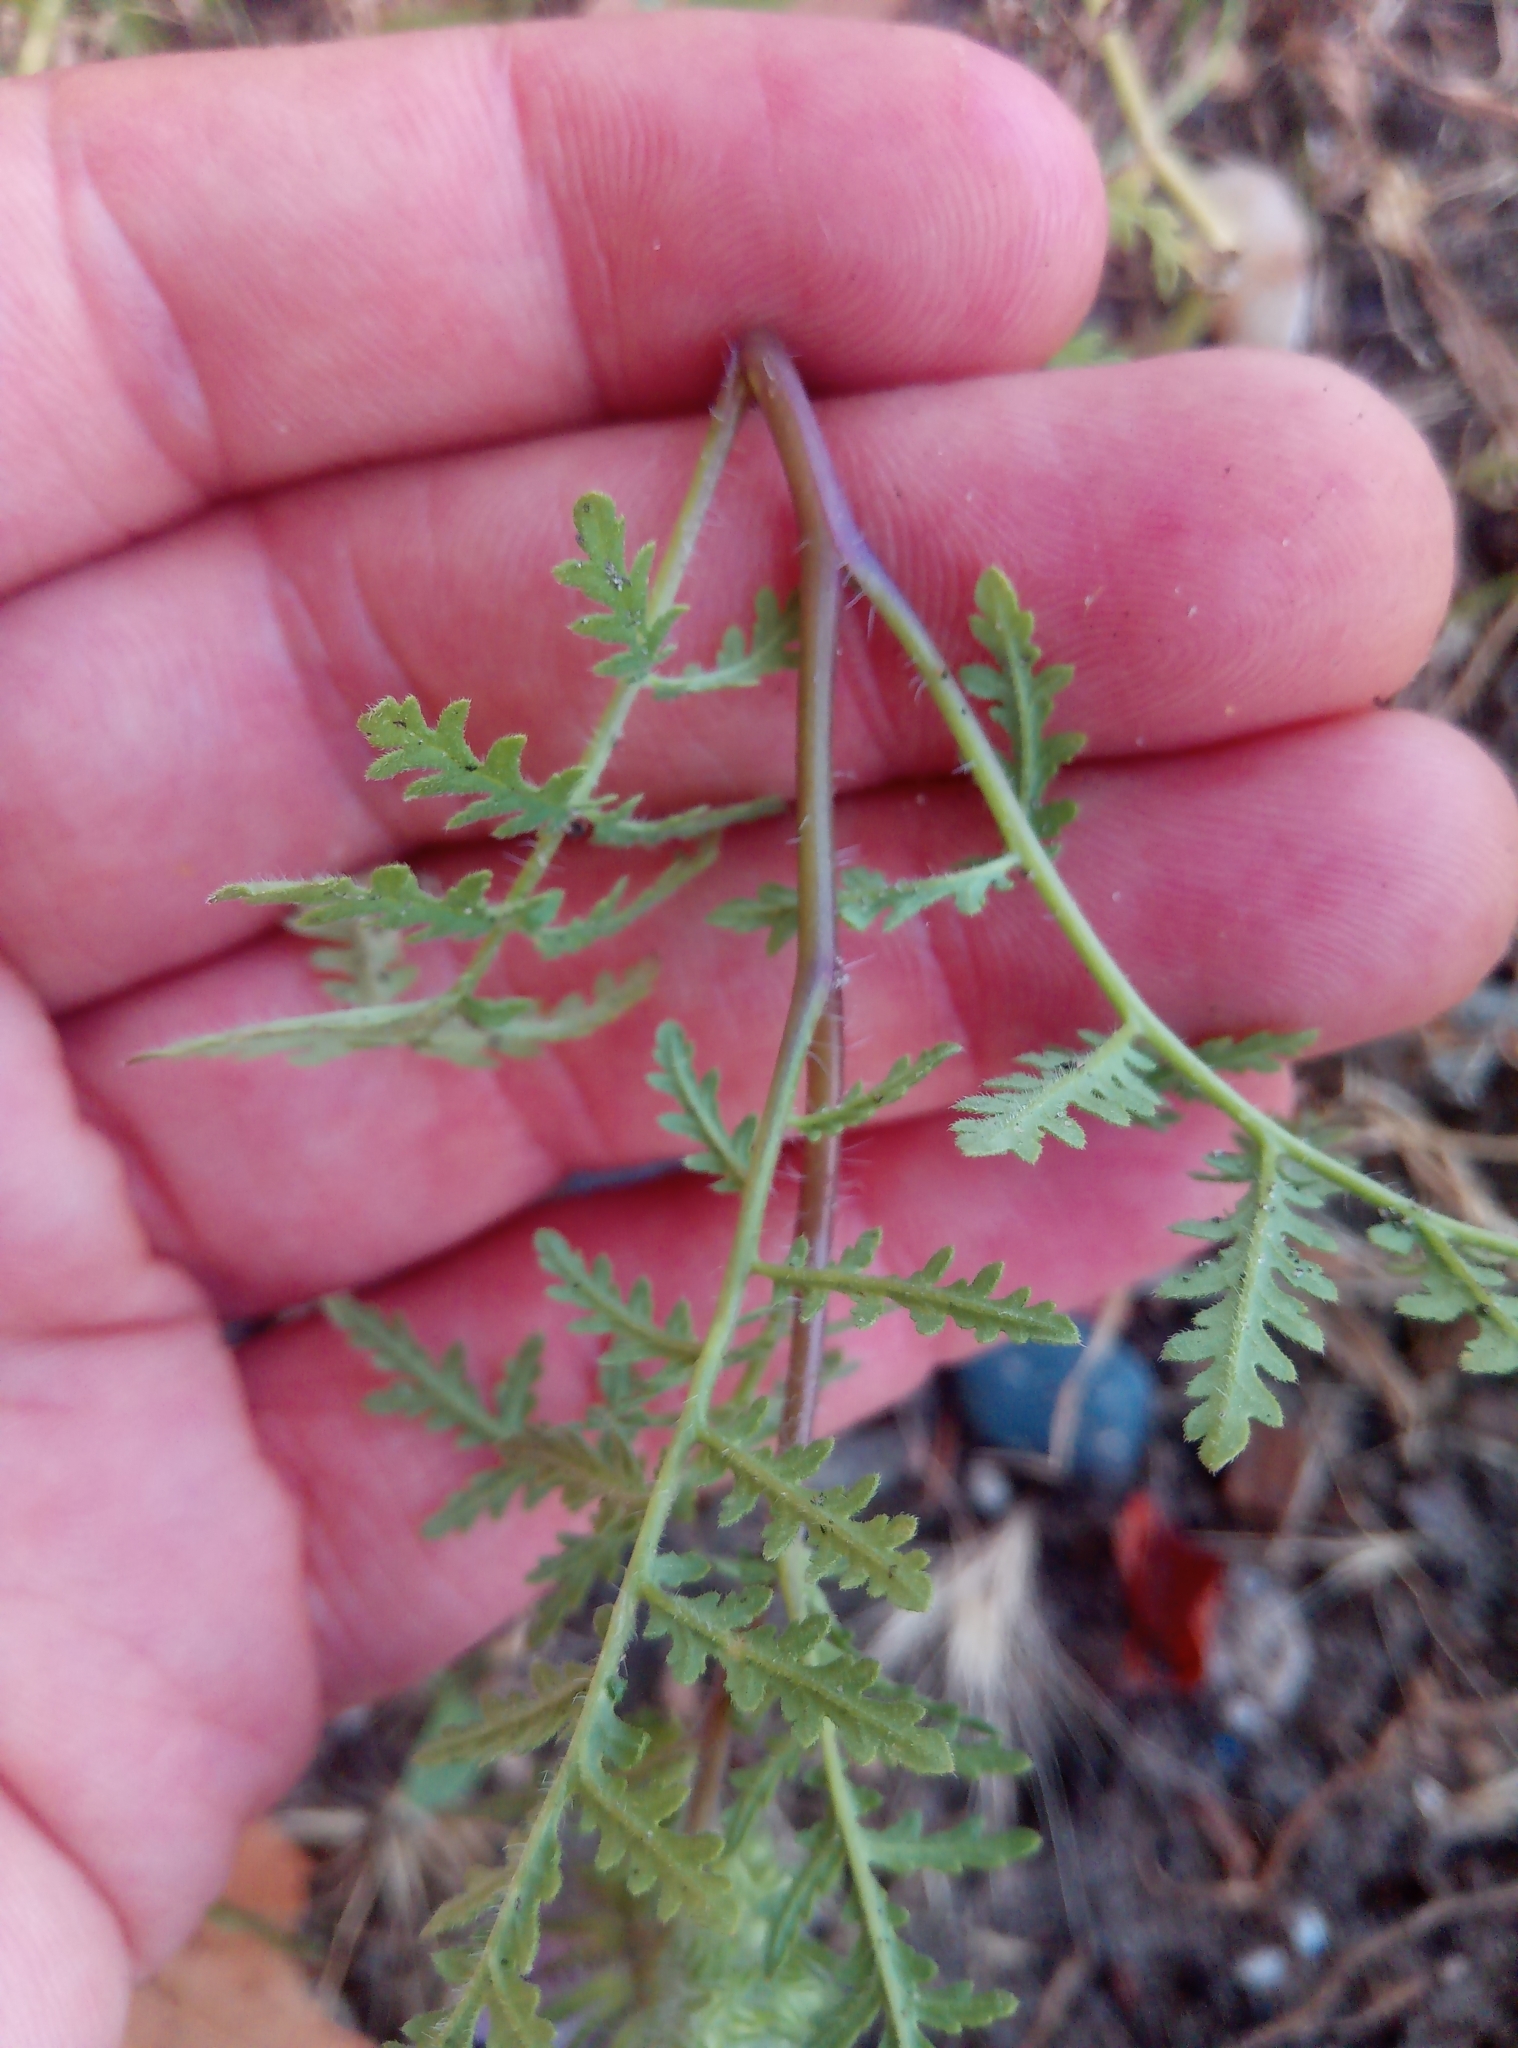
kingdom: Plantae
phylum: Tracheophyta
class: Magnoliopsida
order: Boraginales
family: Hydrophyllaceae
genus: Phacelia
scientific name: Phacelia tanacetifolia
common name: Phacelia
